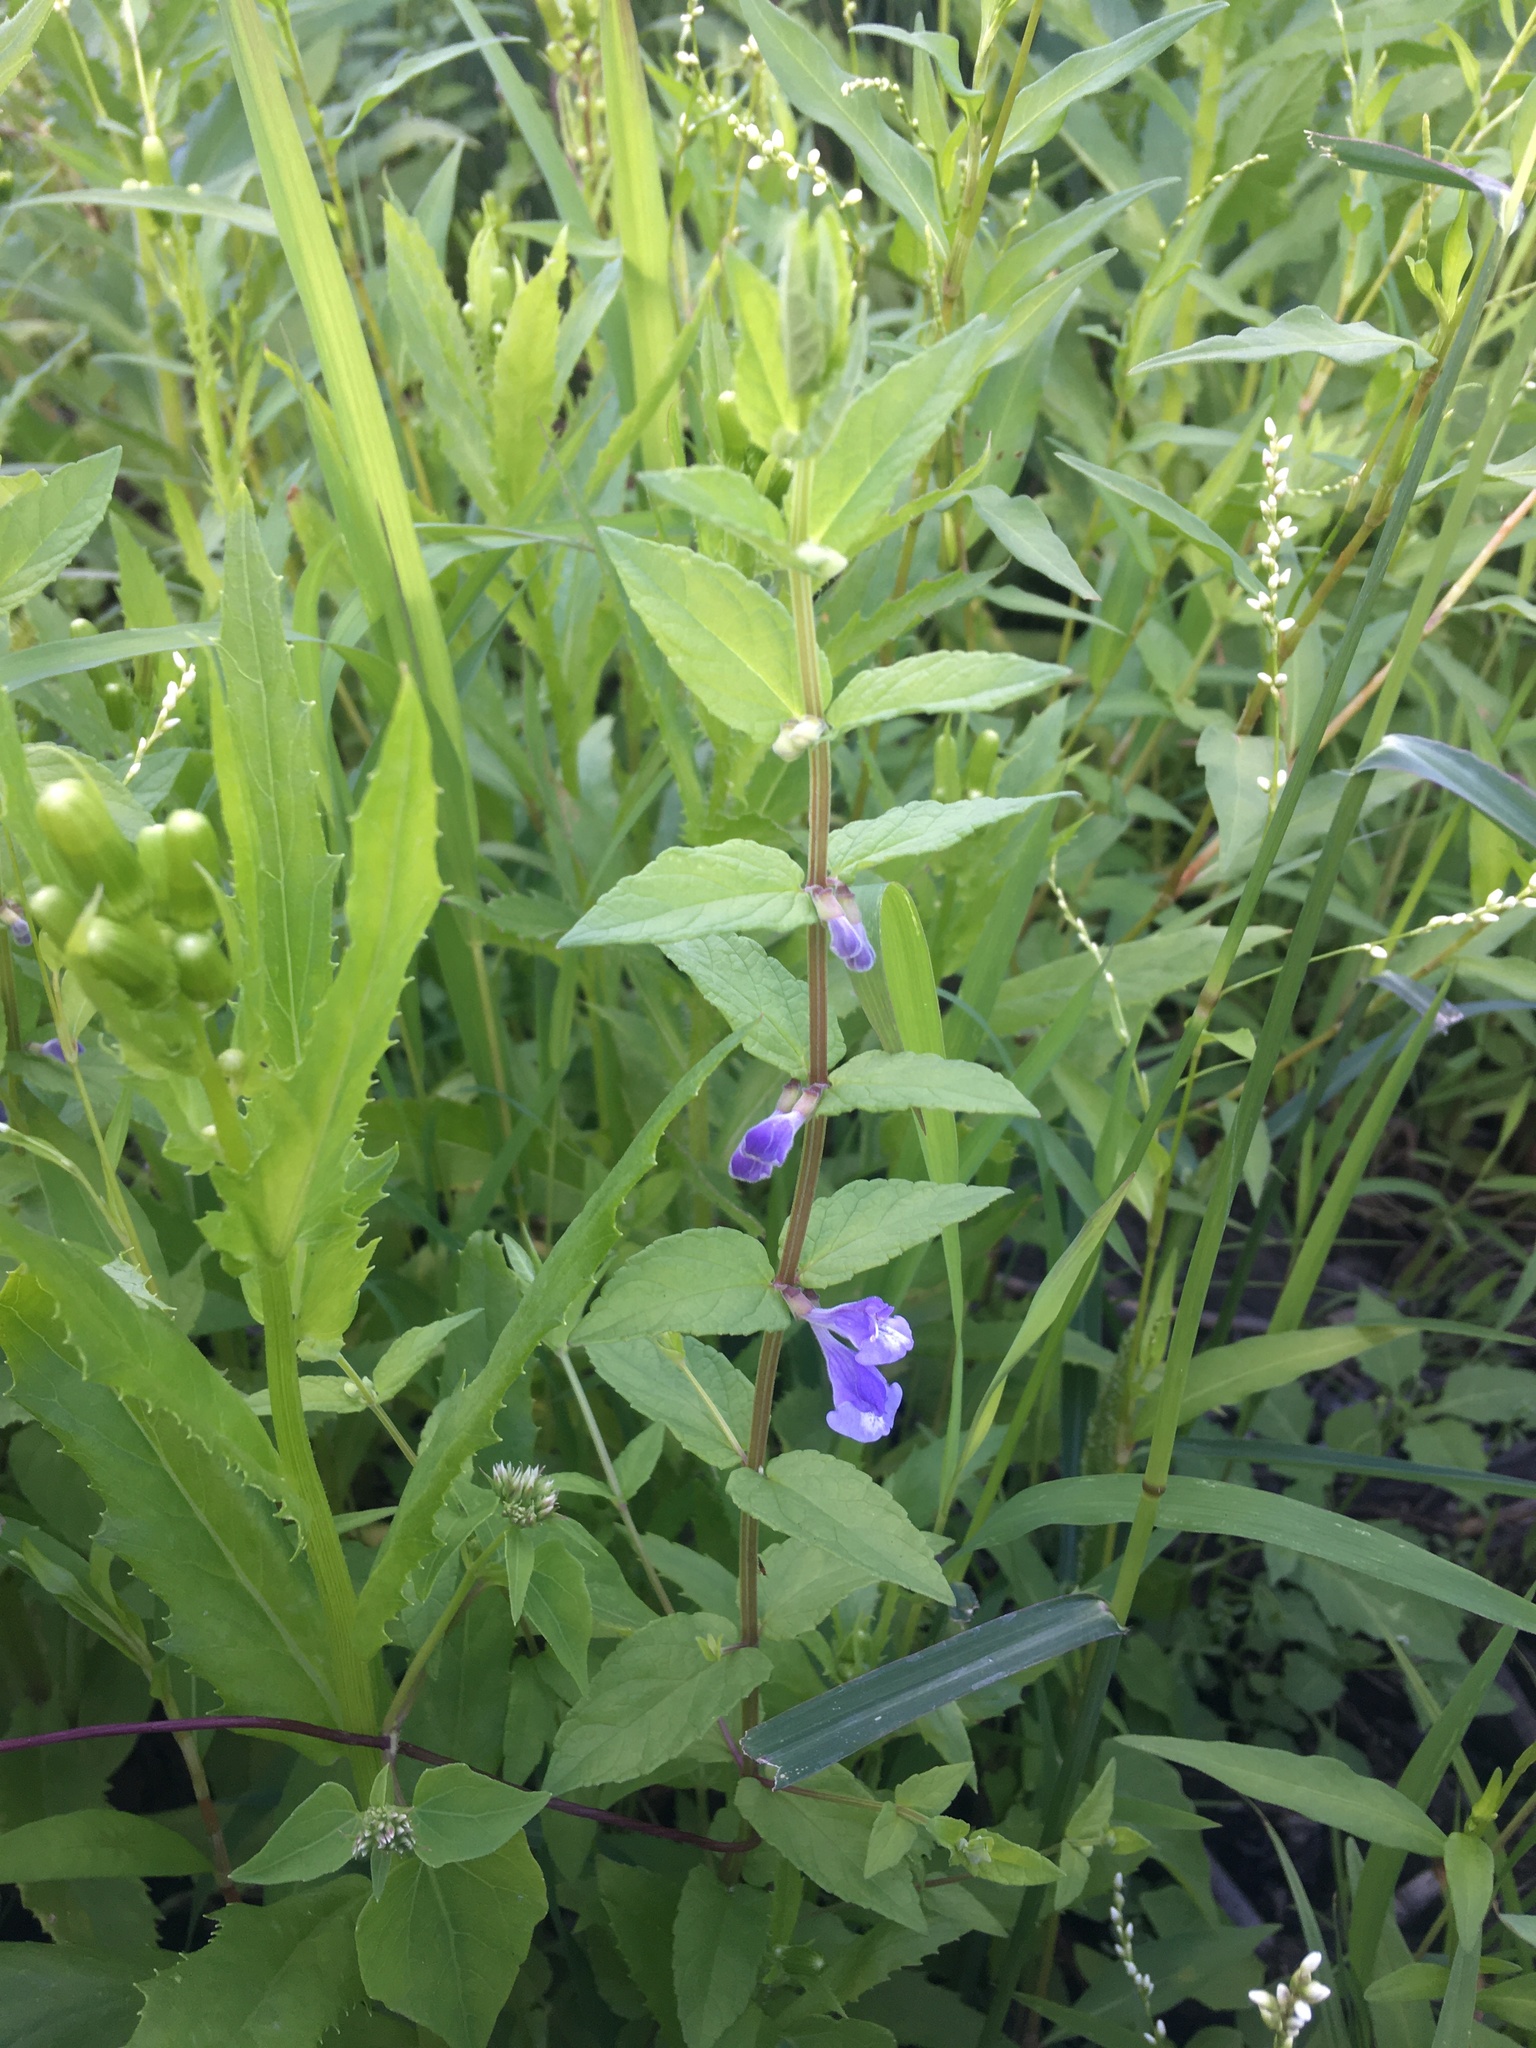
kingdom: Plantae
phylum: Tracheophyta
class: Magnoliopsida
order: Lamiales
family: Lamiaceae
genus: Scutellaria
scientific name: Scutellaria galericulata
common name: Skullcap
